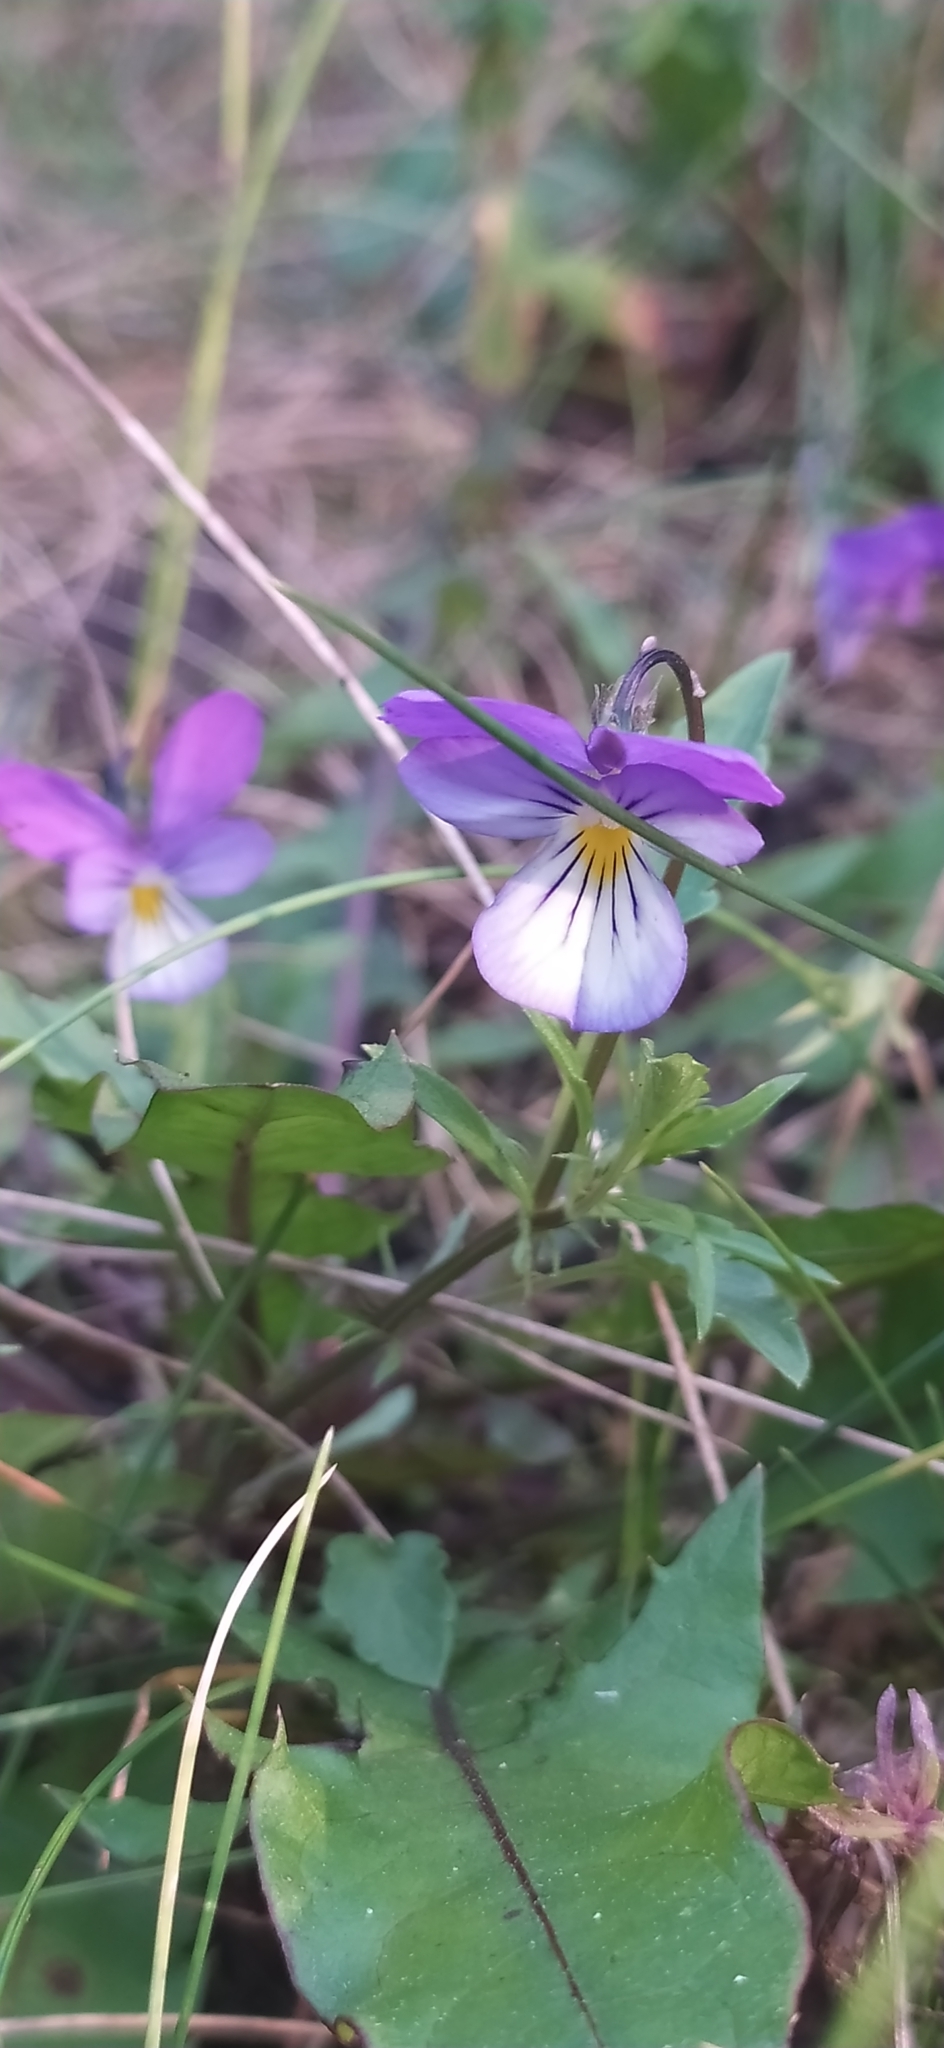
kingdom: Plantae
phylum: Tracheophyta
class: Magnoliopsida
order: Malpighiales
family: Violaceae
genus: Viola
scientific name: Viola tricolor
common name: Pansy
